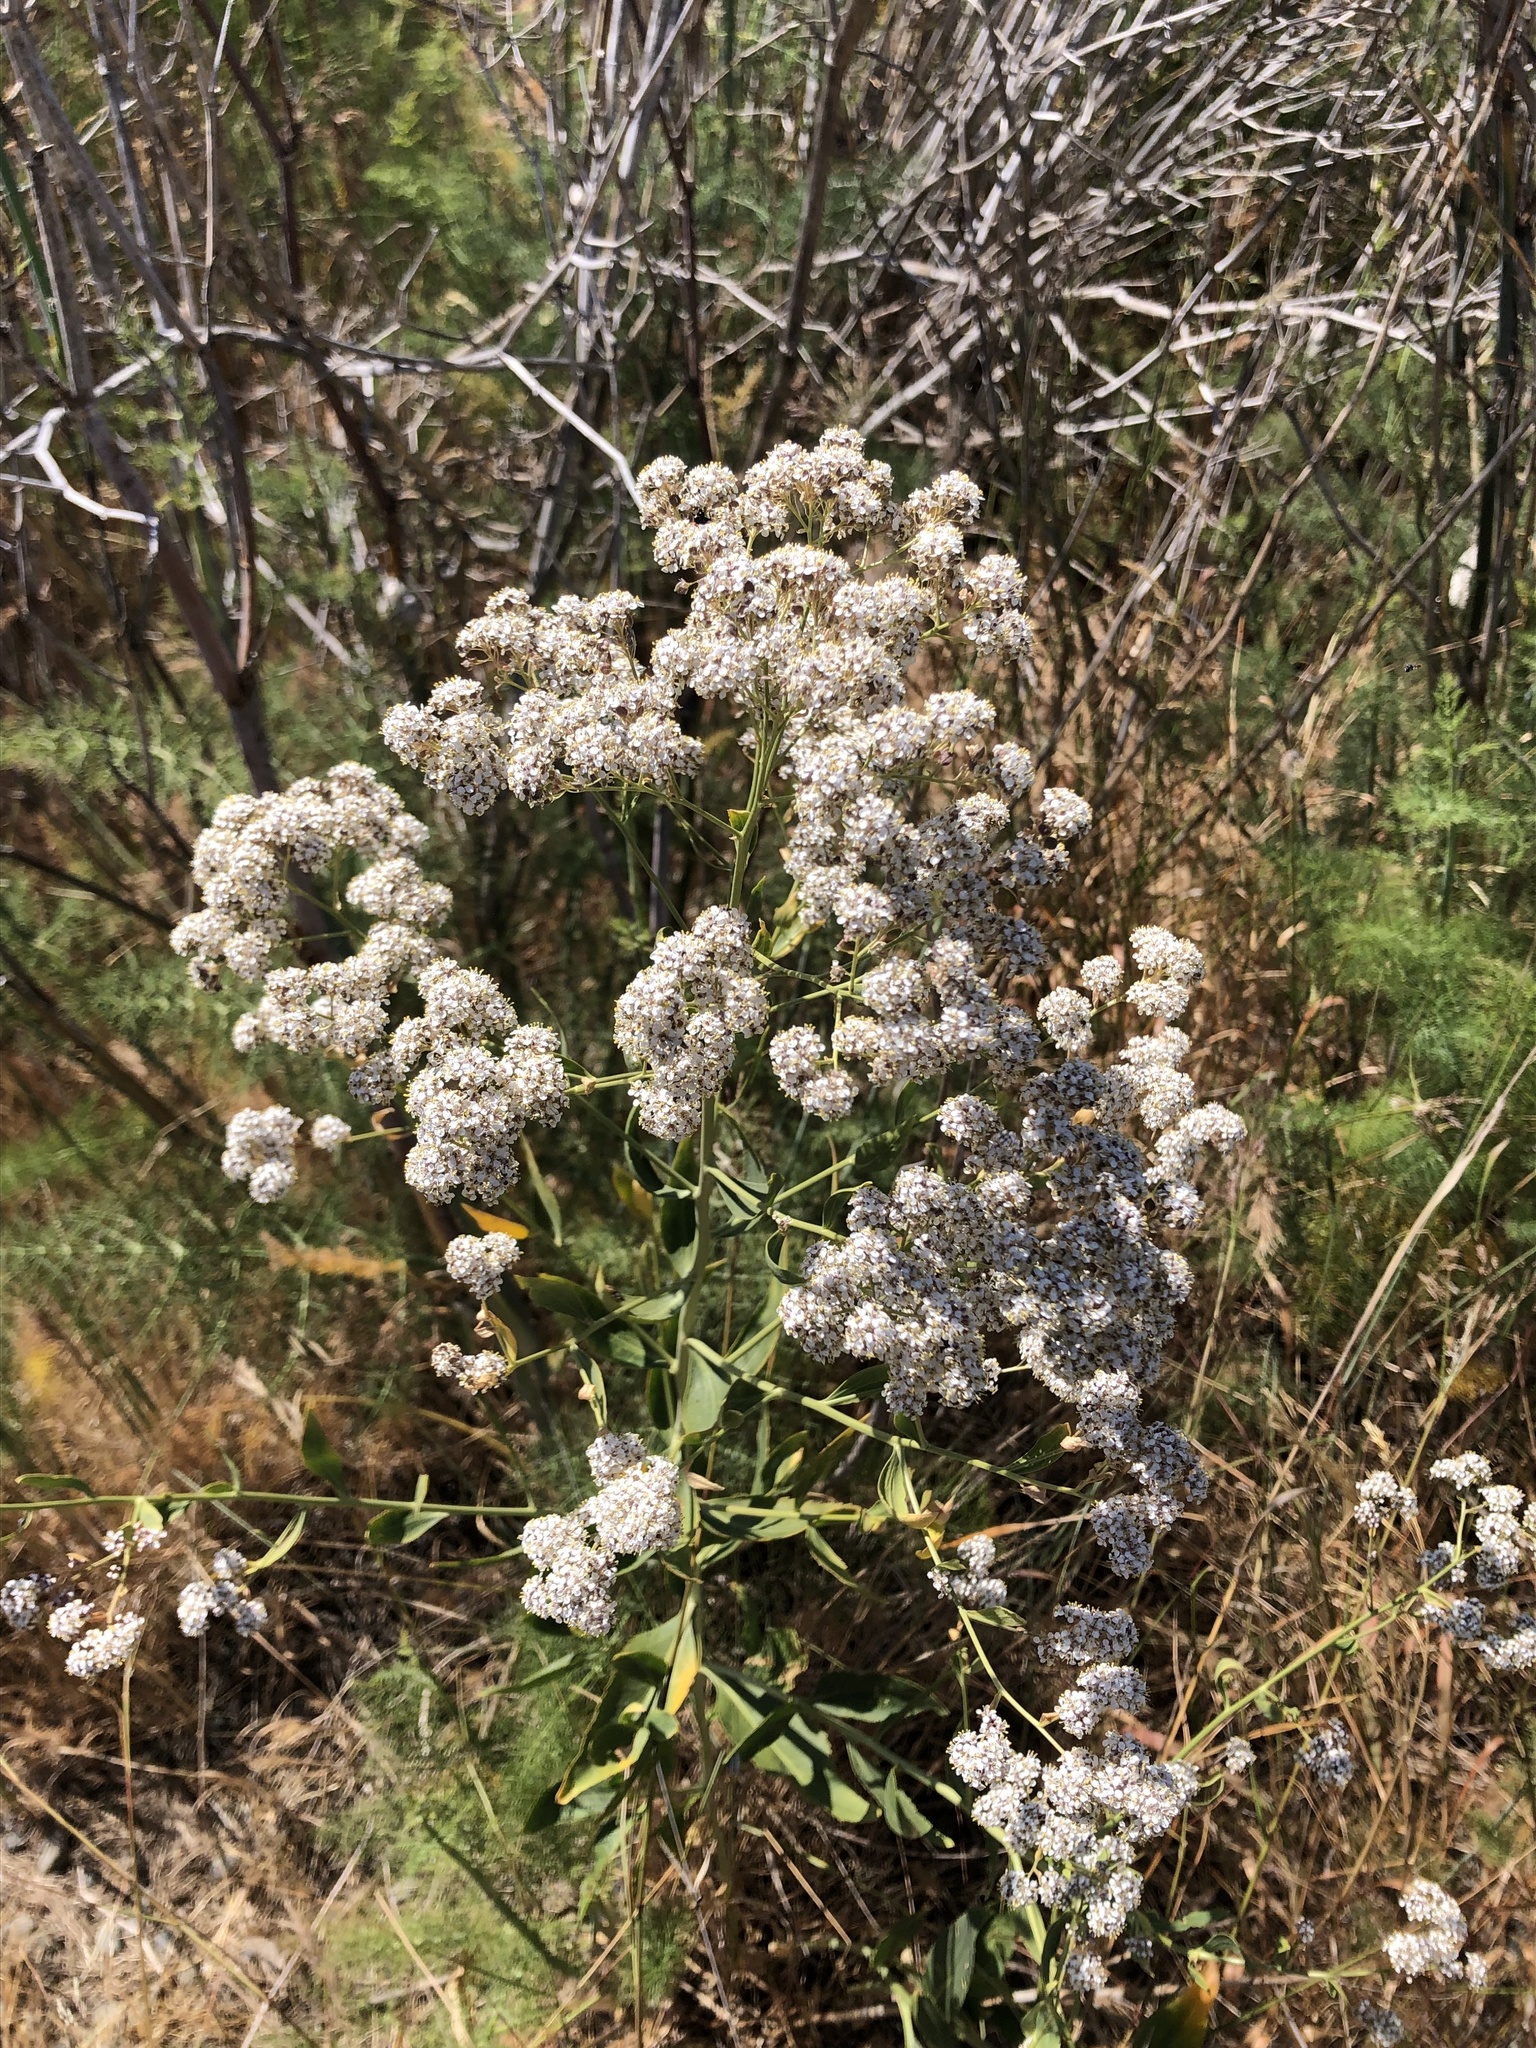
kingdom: Plantae
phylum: Tracheophyta
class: Magnoliopsida
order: Brassicales
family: Brassicaceae
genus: Lepidium
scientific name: Lepidium latifolium
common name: Dittander
